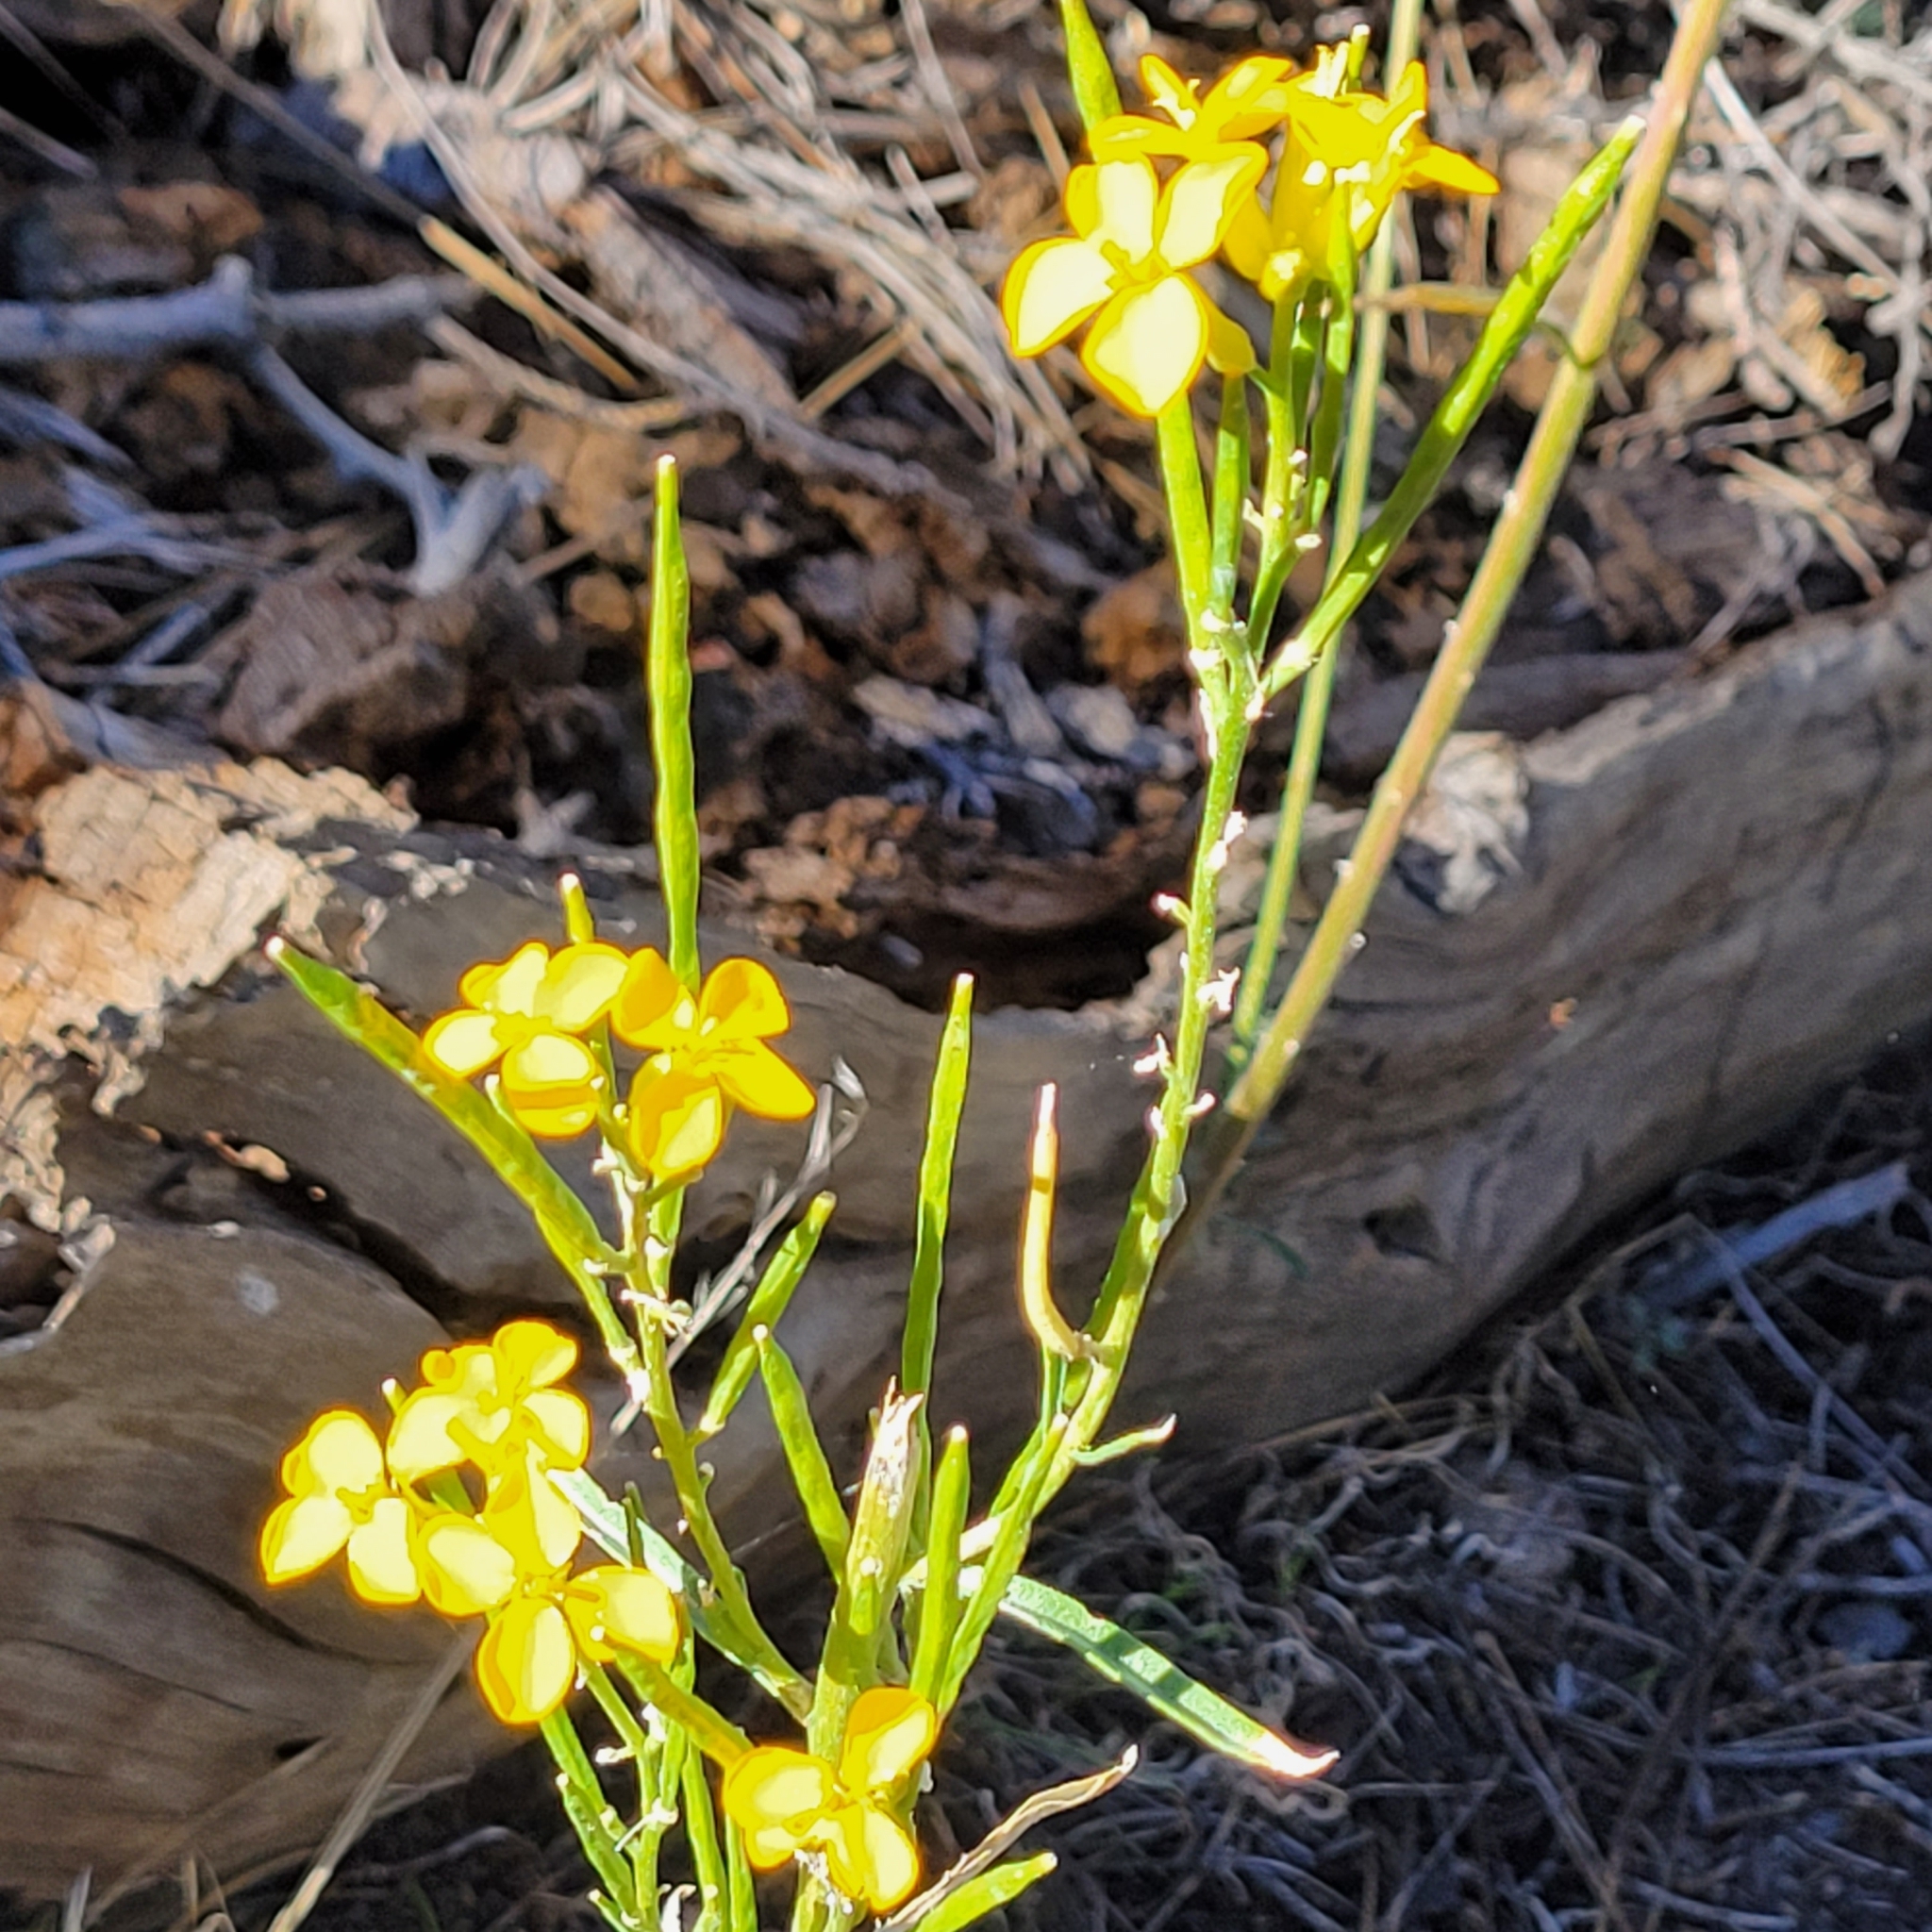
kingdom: Plantae
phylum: Tracheophyta
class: Magnoliopsida
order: Brassicales
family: Brassicaceae
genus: Erysimum
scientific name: Erysimum capitatum
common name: Western wallflower
